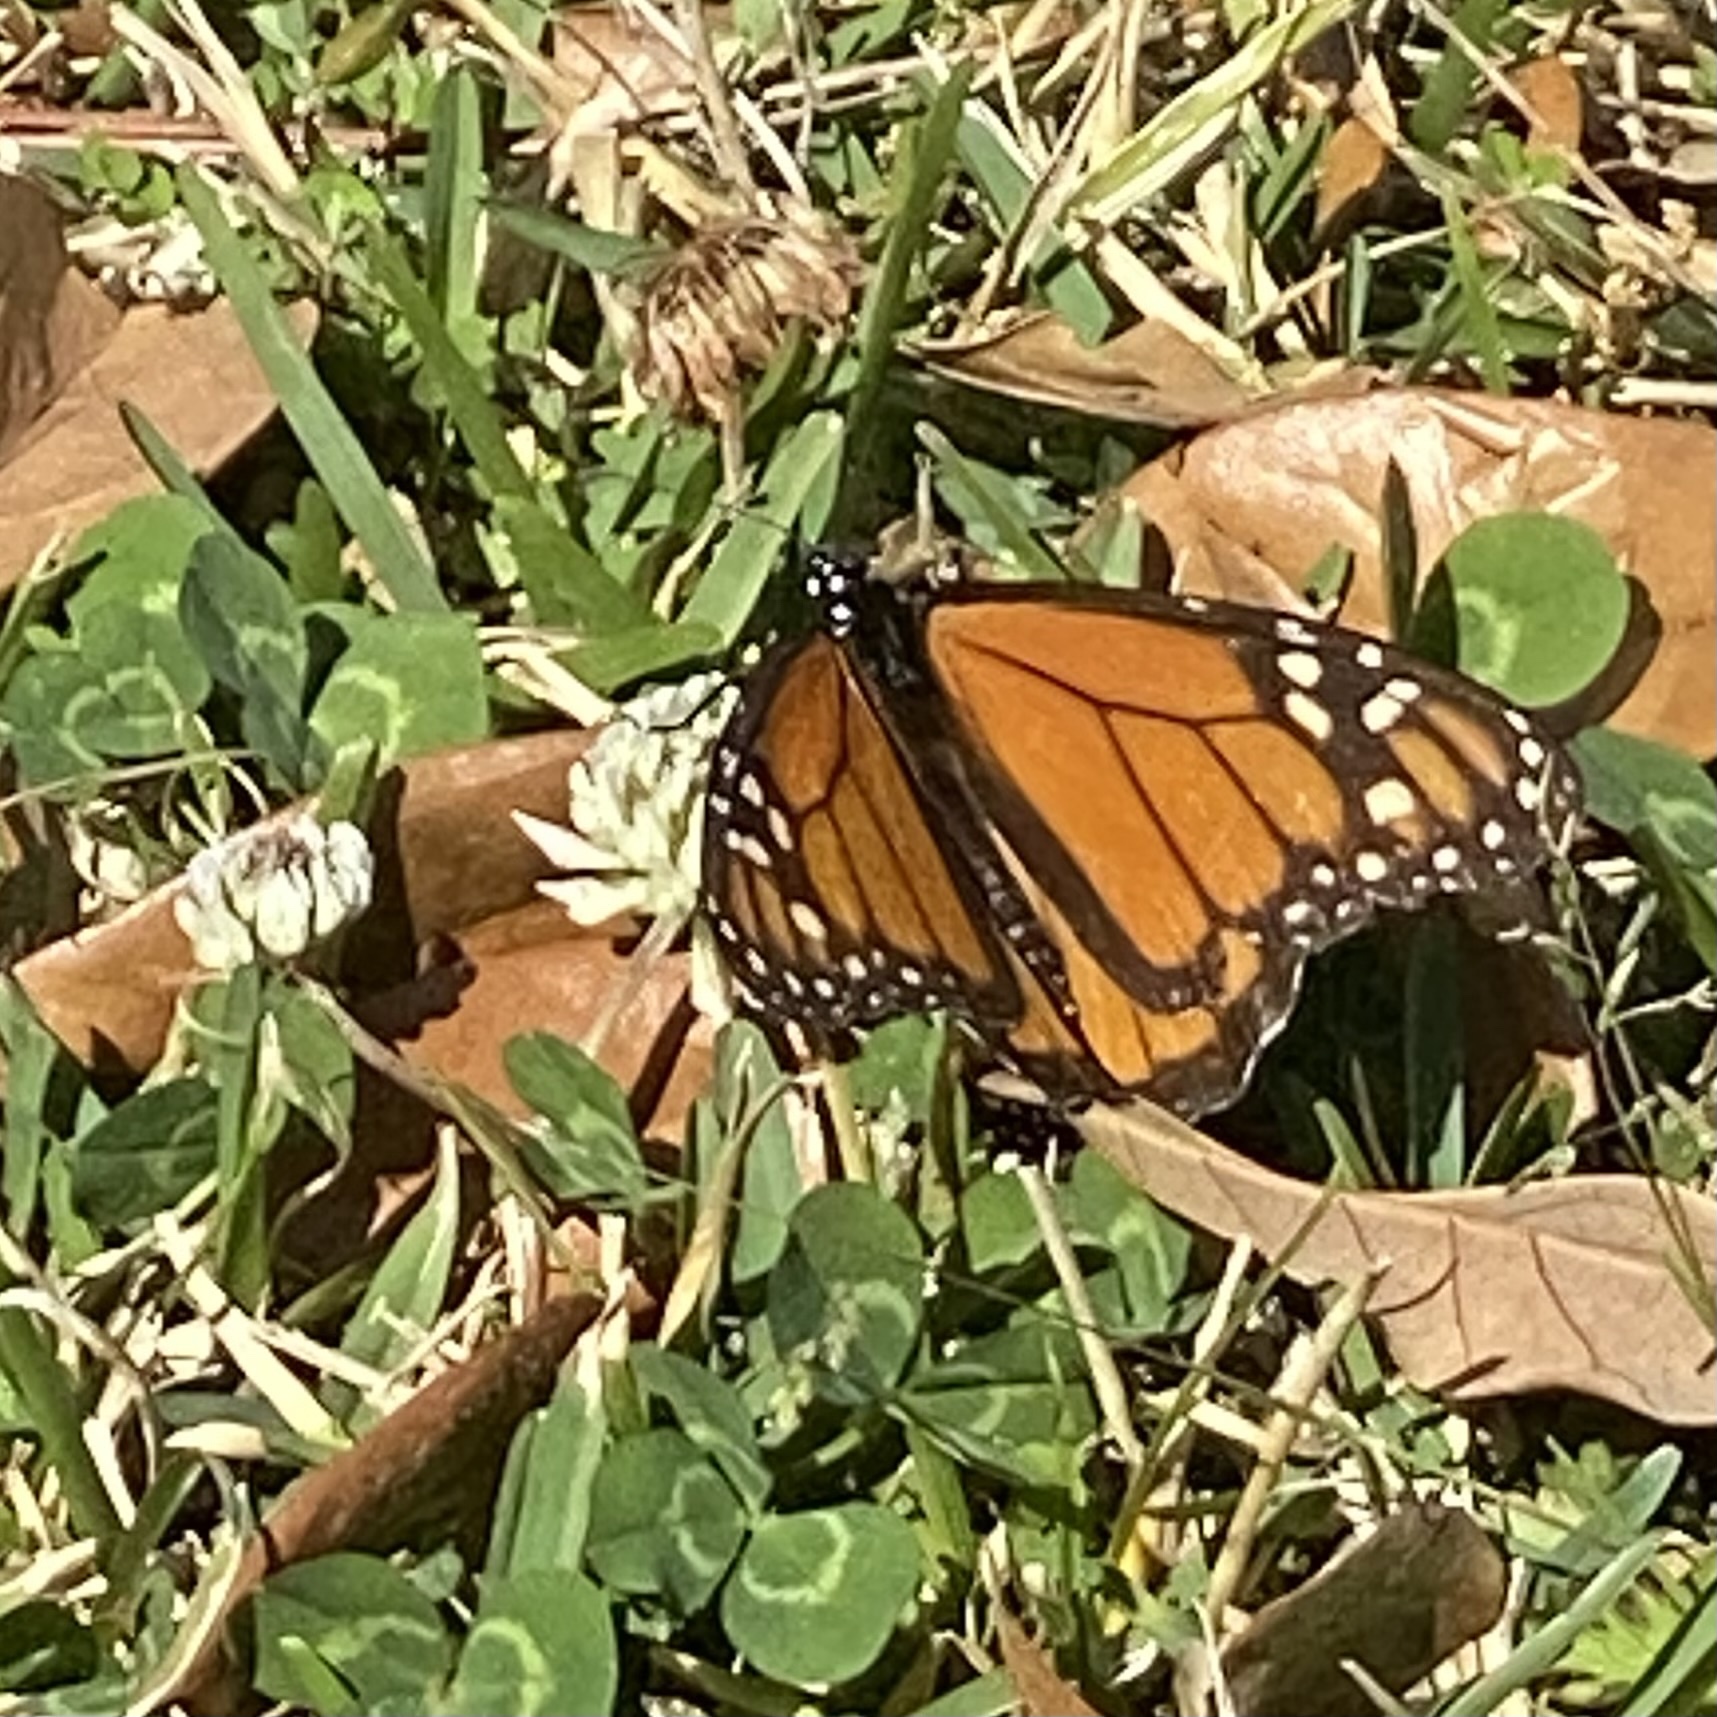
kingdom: Animalia
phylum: Arthropoda
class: Insecta
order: Lepidoptera
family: Nymphalidae
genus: Danaus
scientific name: Danaus plexippus
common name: Monarch
